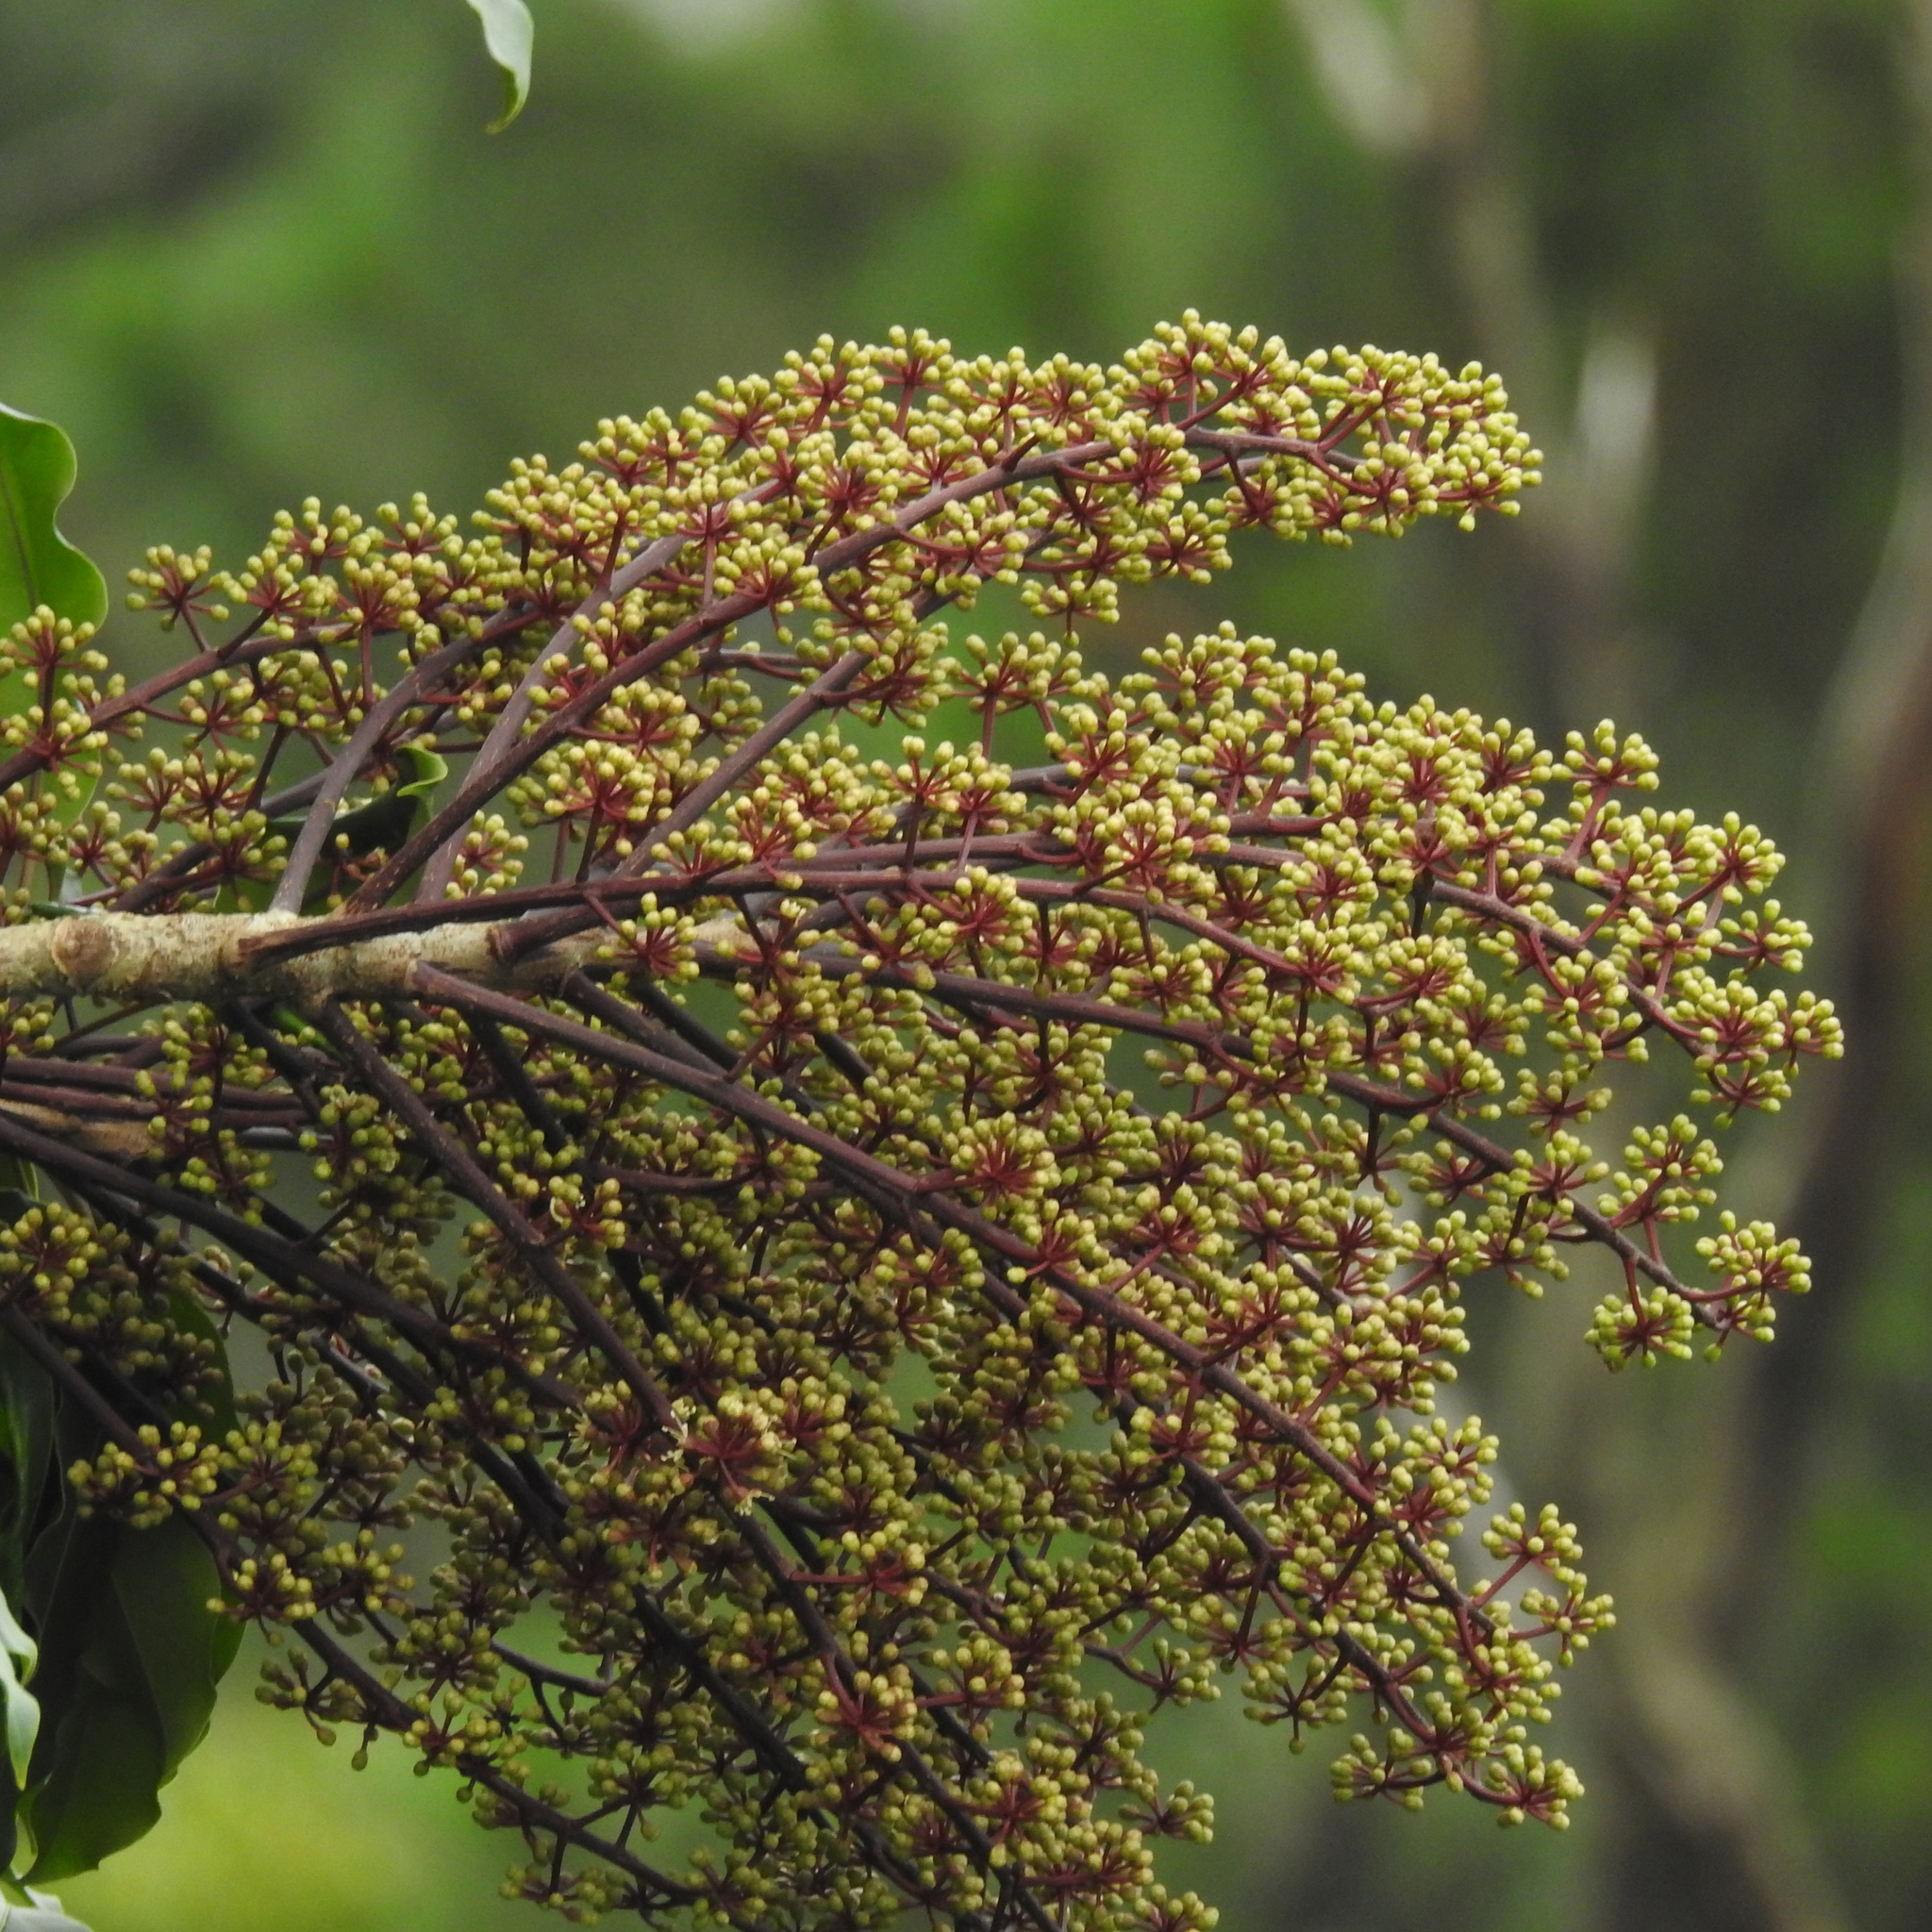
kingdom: Plantae
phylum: Tracheophyta
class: Magnoliopsida
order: Apiales
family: Araliaceae
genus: Heptapleurum
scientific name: Heptapleurum venulosum
